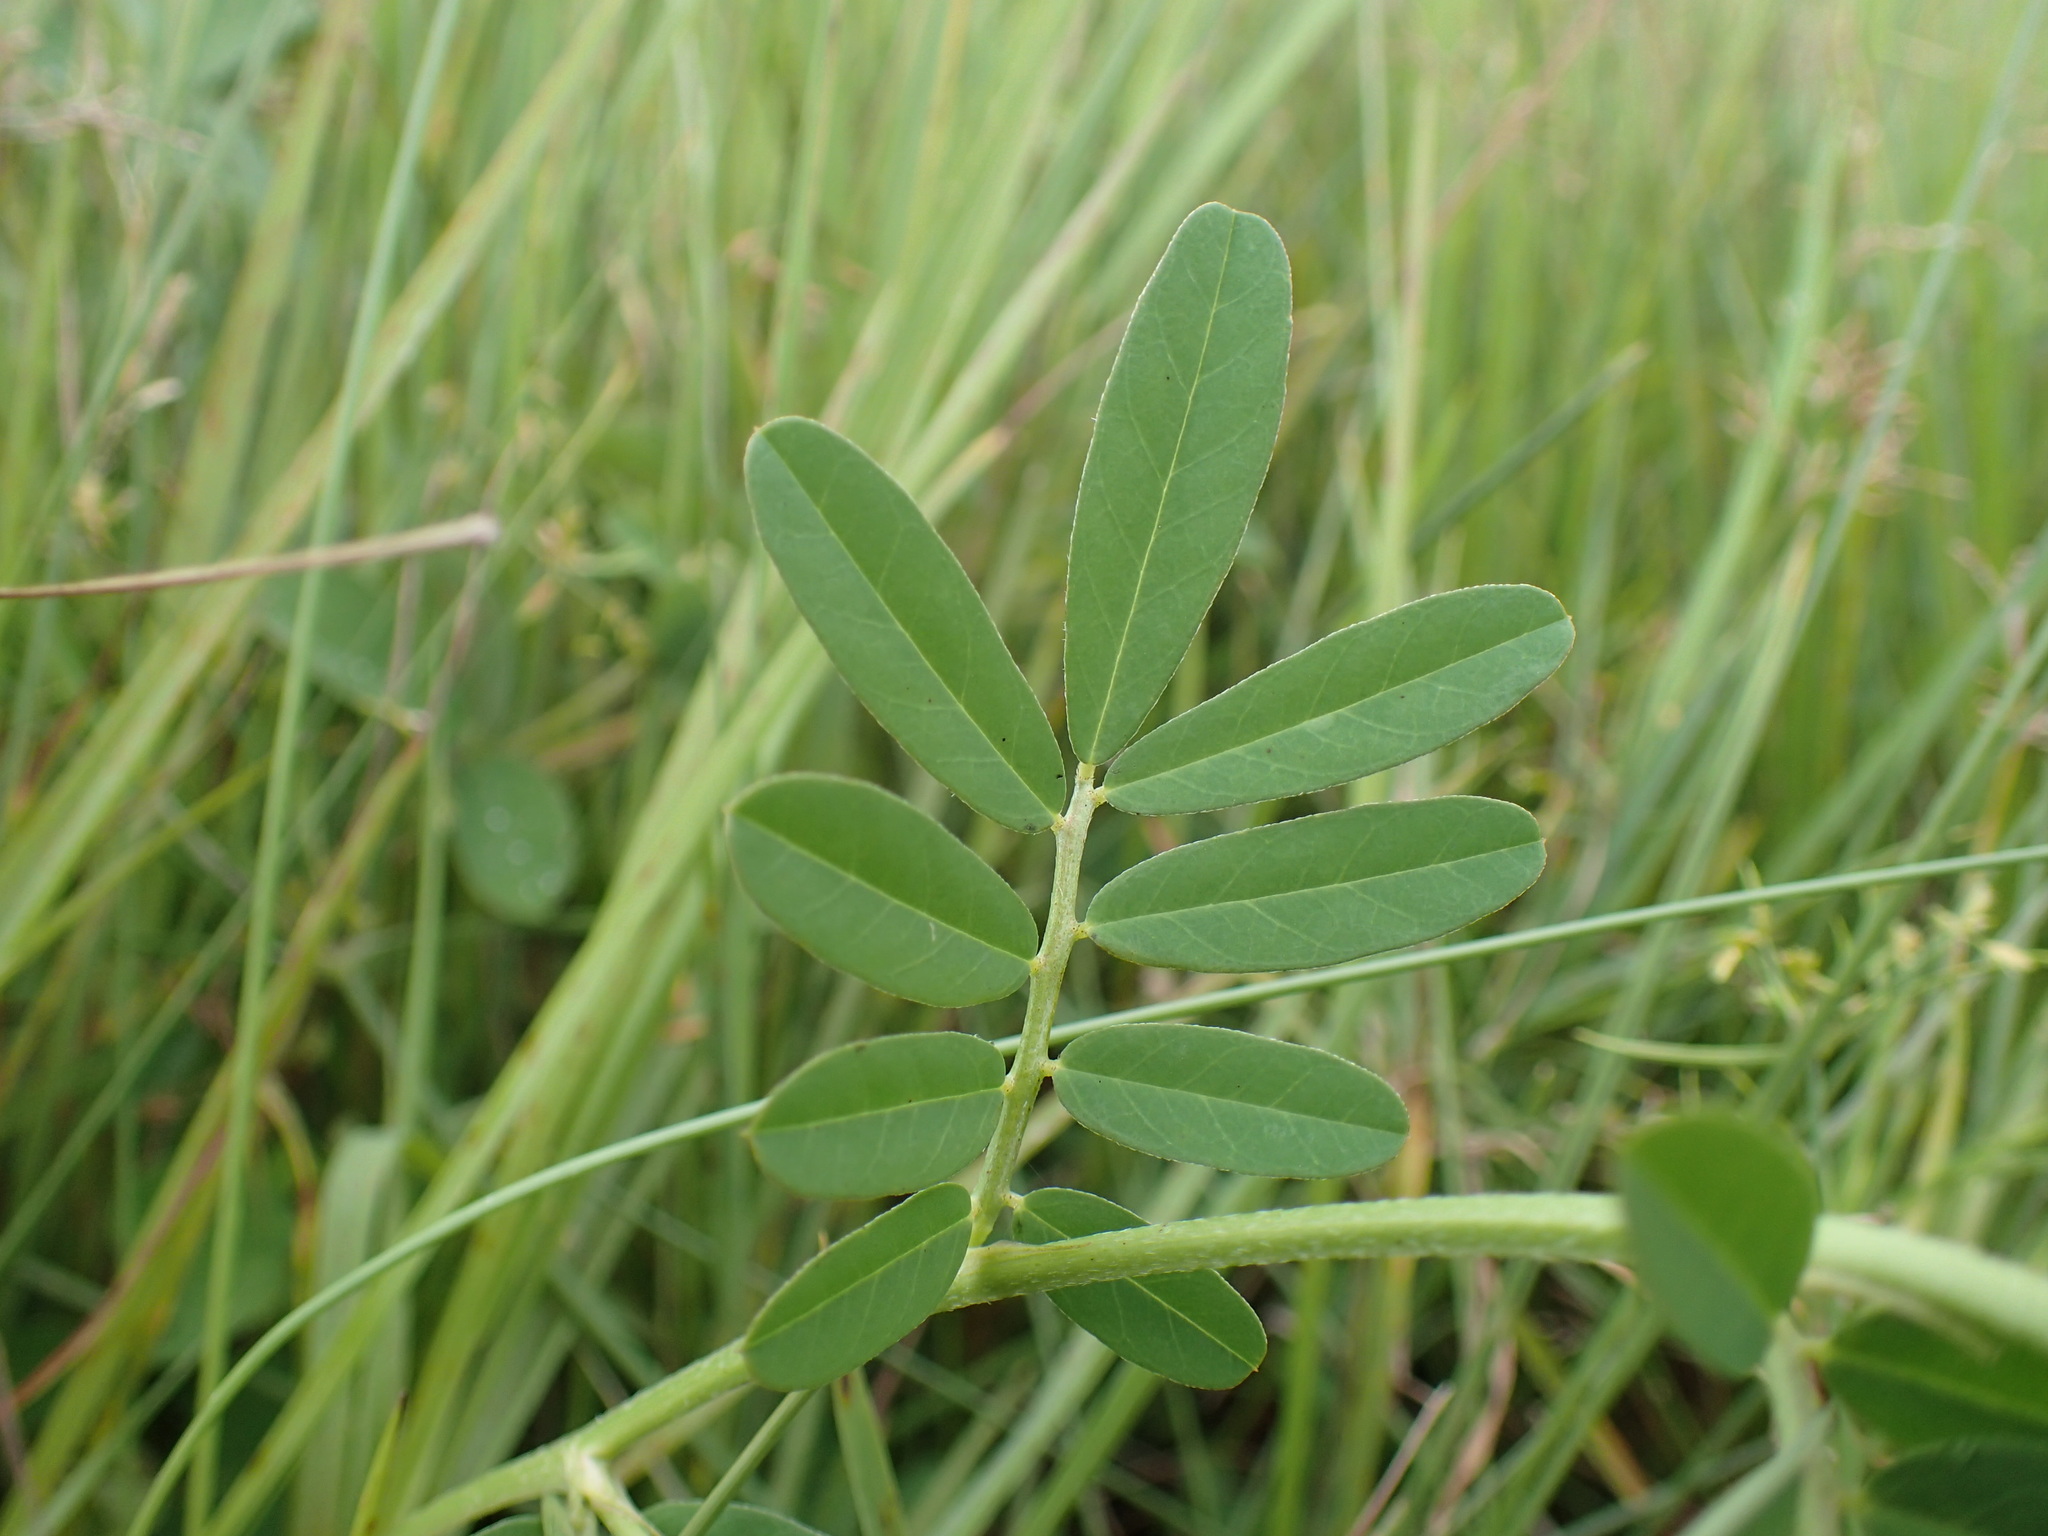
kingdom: Plantae
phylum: Tracheophyta
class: Magnoliopsida
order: Fabales
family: Fabaceae
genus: Indigofera
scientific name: Indigofera hendecaphylla
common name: Trailing indigo
